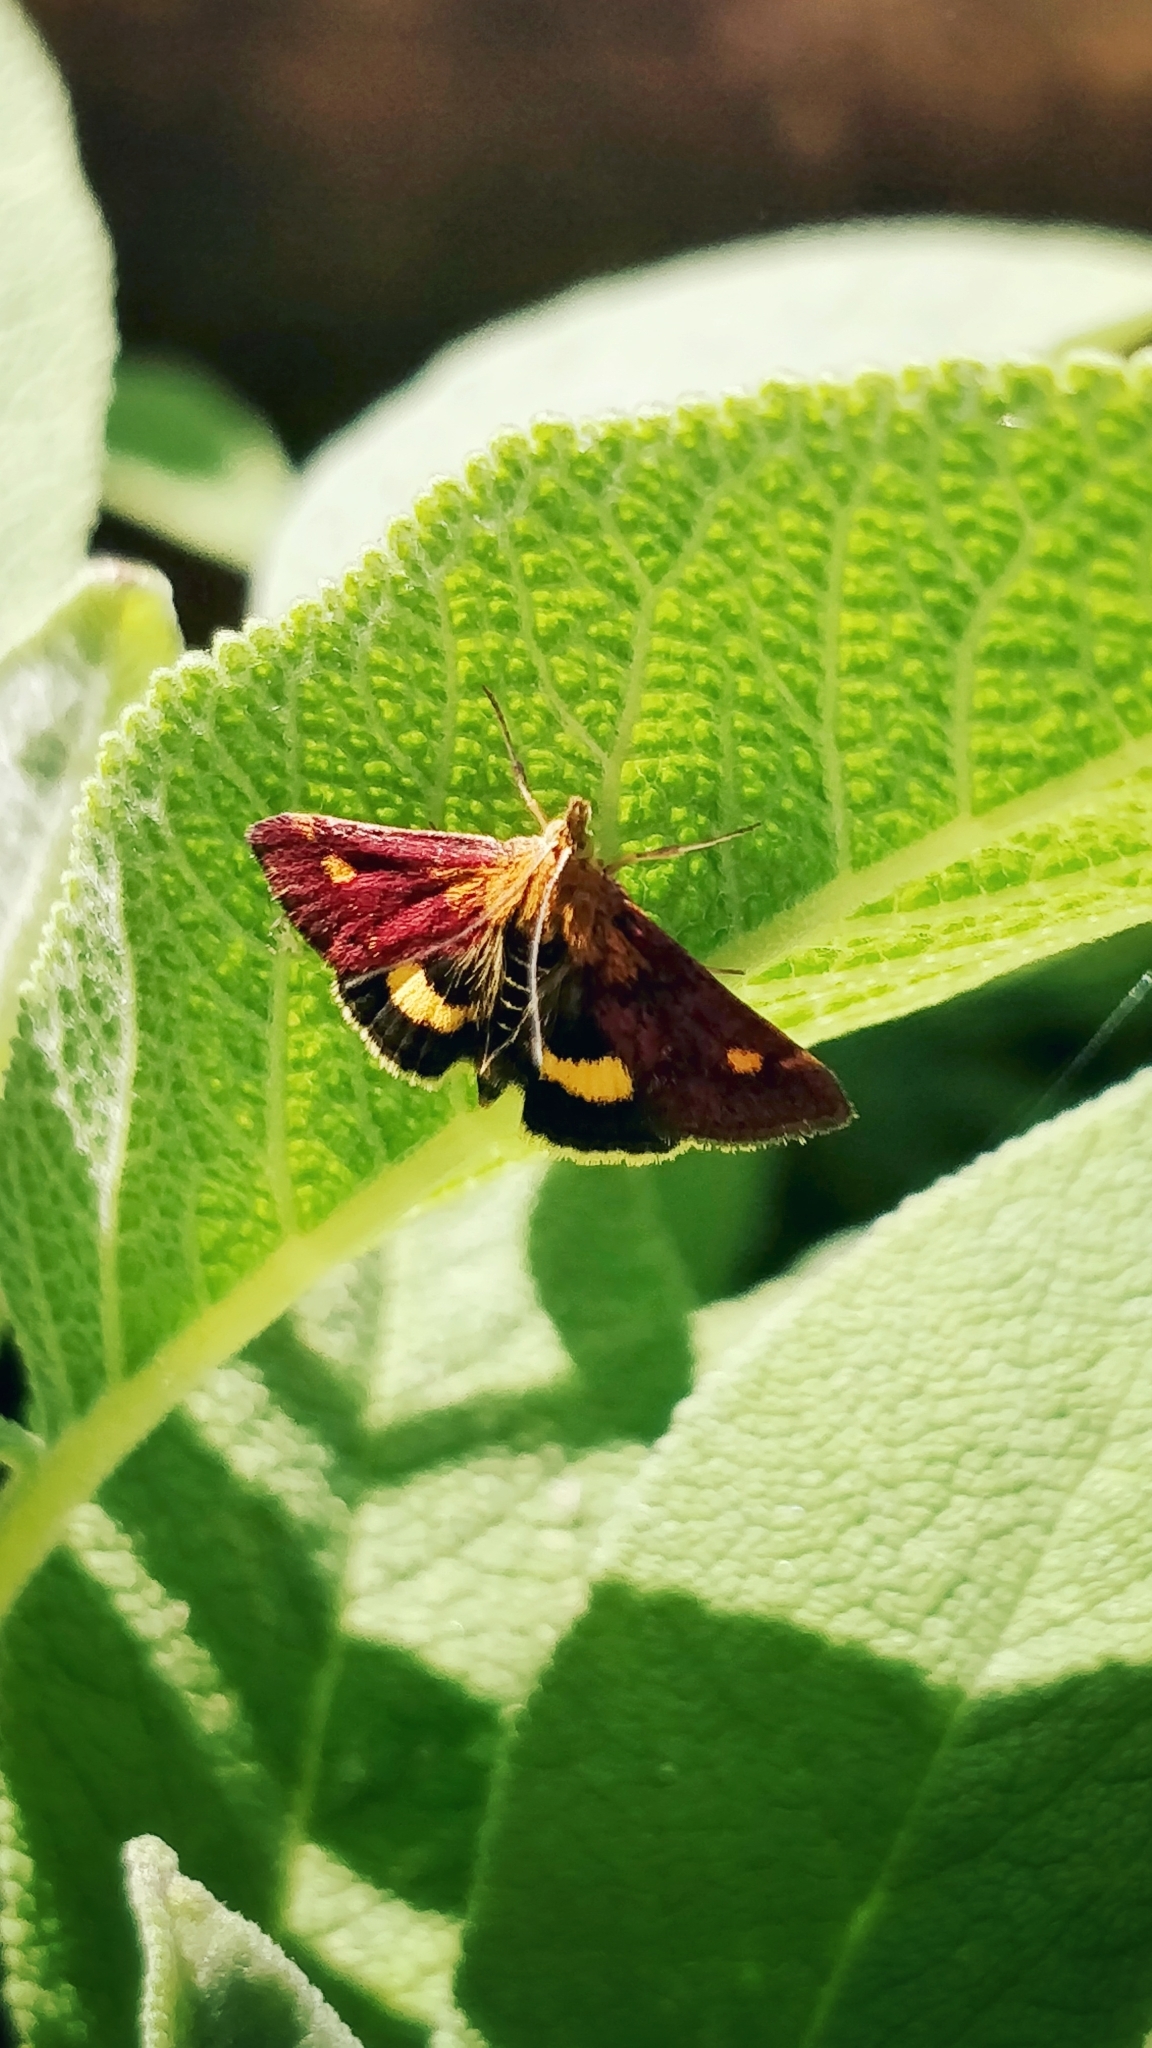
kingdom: Animalia
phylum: Arthropoda
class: Insecta
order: Lepidoptera
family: Crambidae
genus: Pyrausta
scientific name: Pyrausta aurata
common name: Small purple & gold
